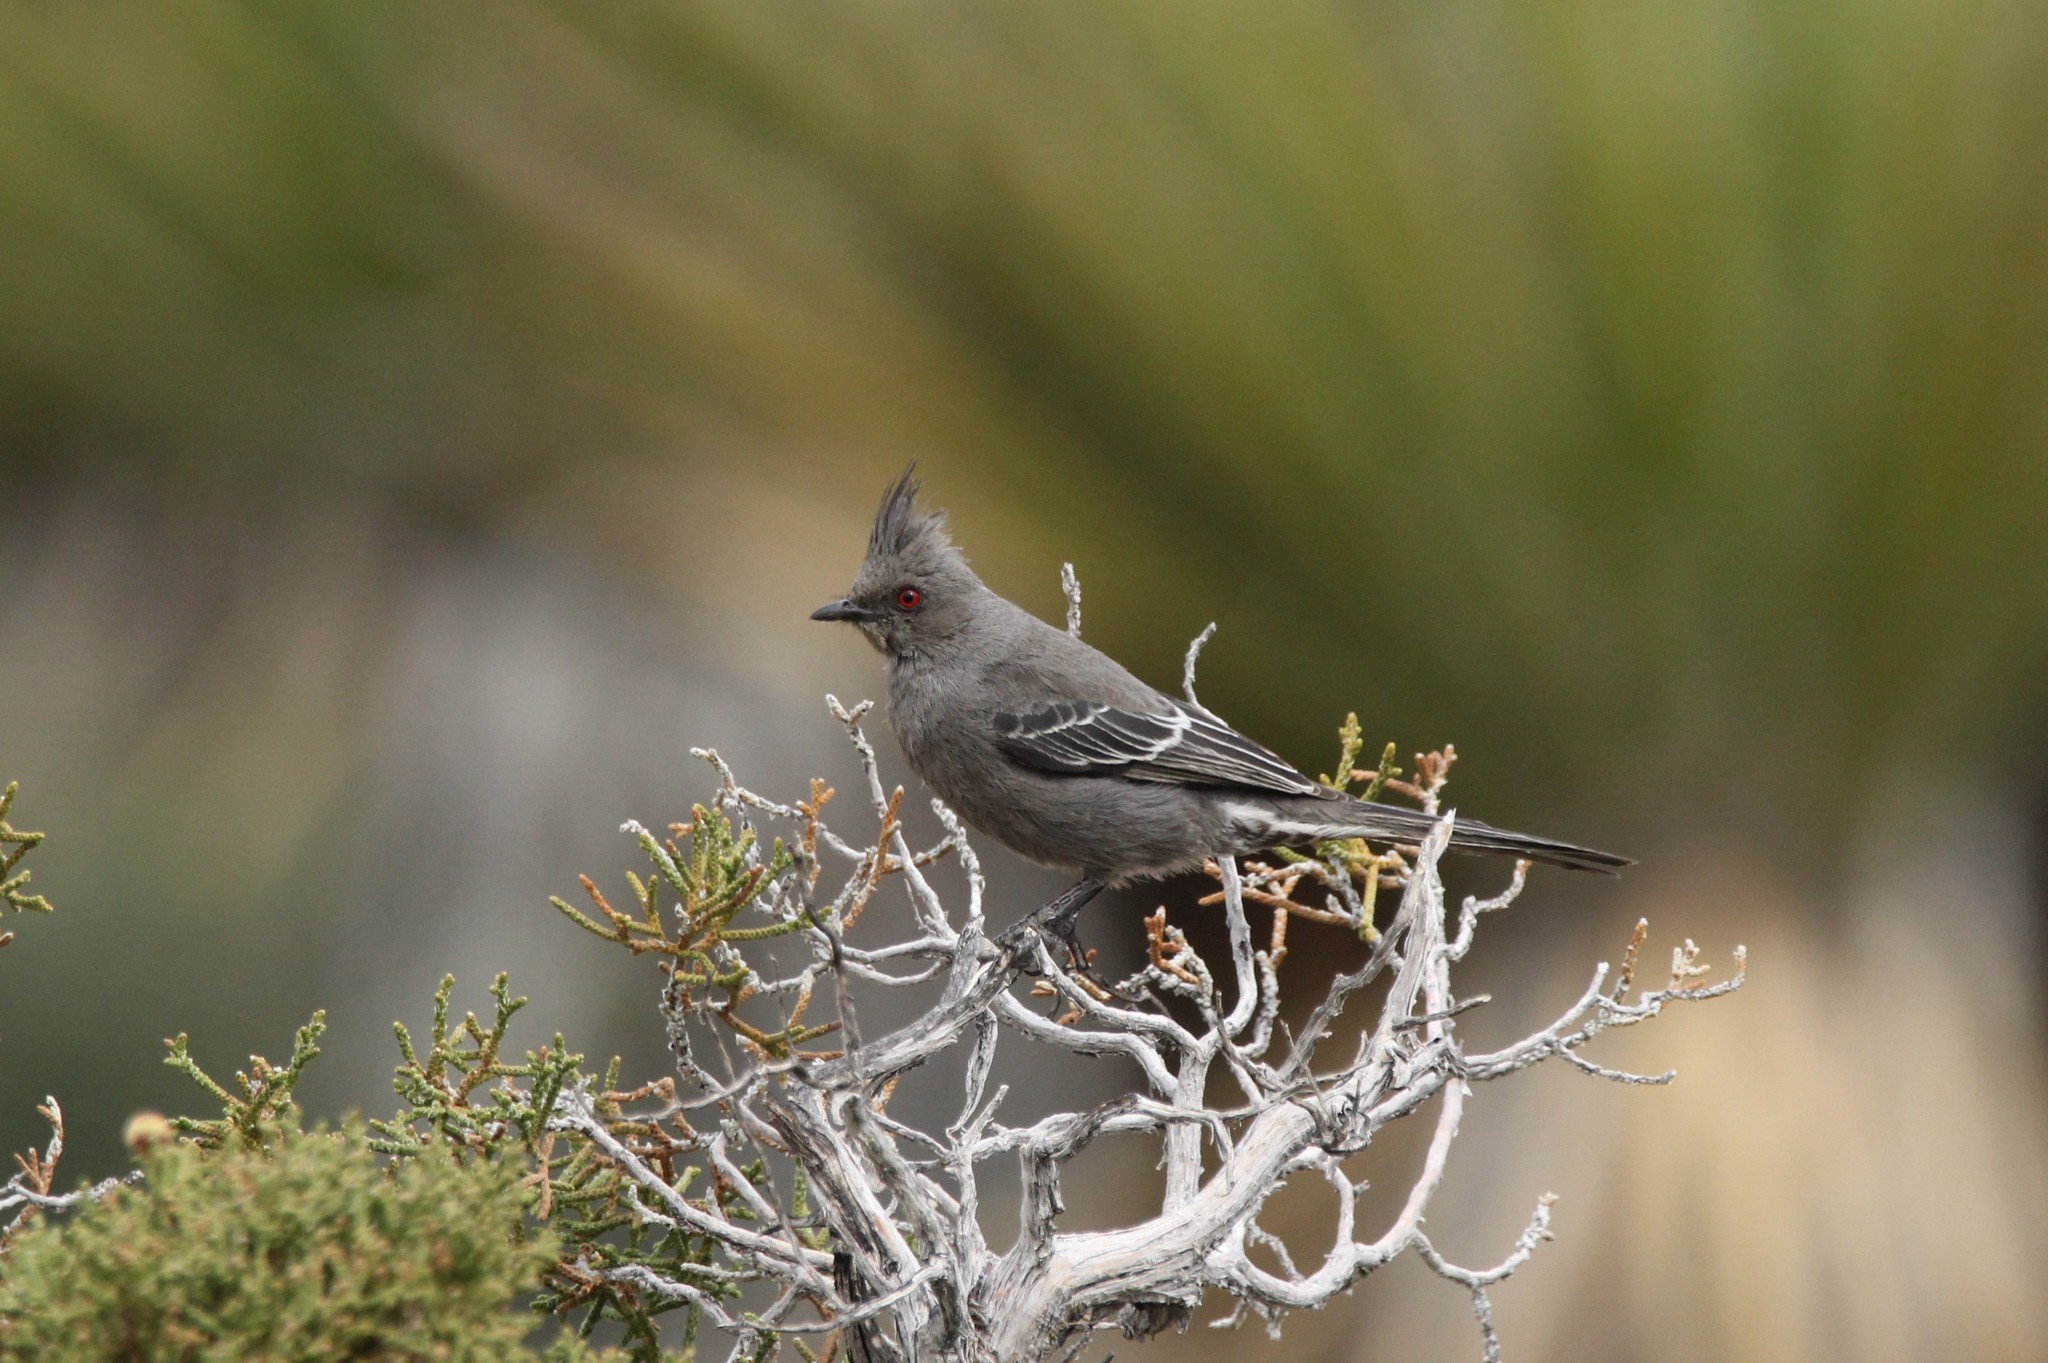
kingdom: Animalia
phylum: Chordata
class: Aves
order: Passeriformes
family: Ptilogonatidae
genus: Phainopepla
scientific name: Phainopepla nitens
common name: Phainopepla
